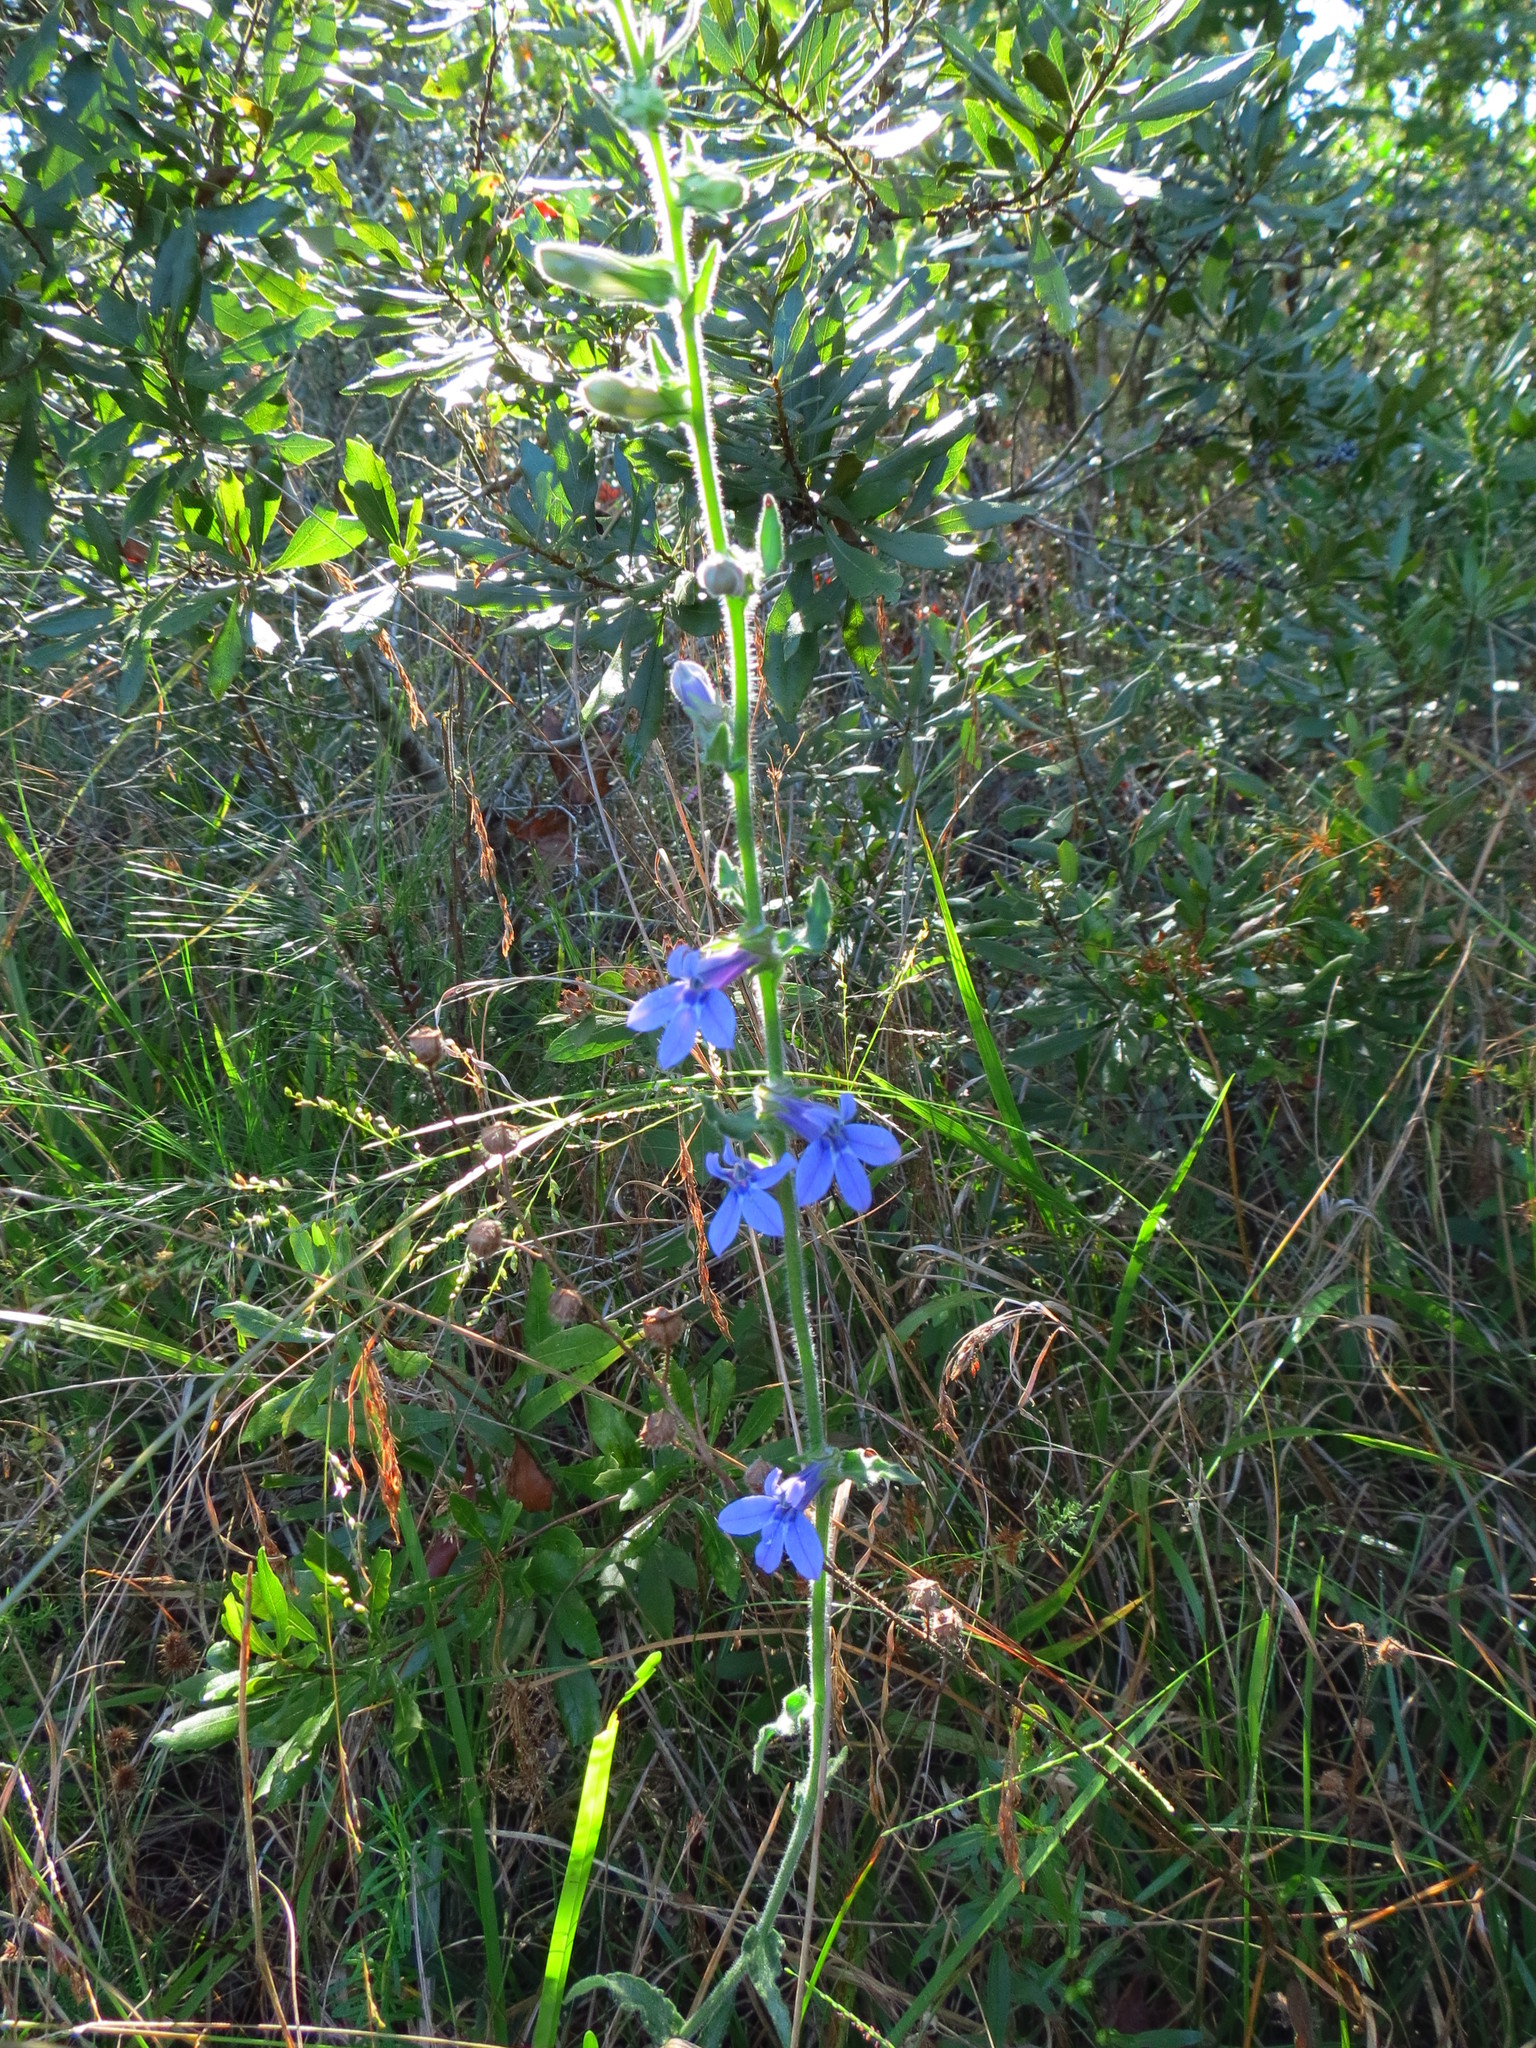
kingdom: Plantae
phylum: Tracheophyta
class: Magnoliopsida
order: Asterales
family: Campanulaceae
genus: Lobelia
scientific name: Lobelia reverchonii
